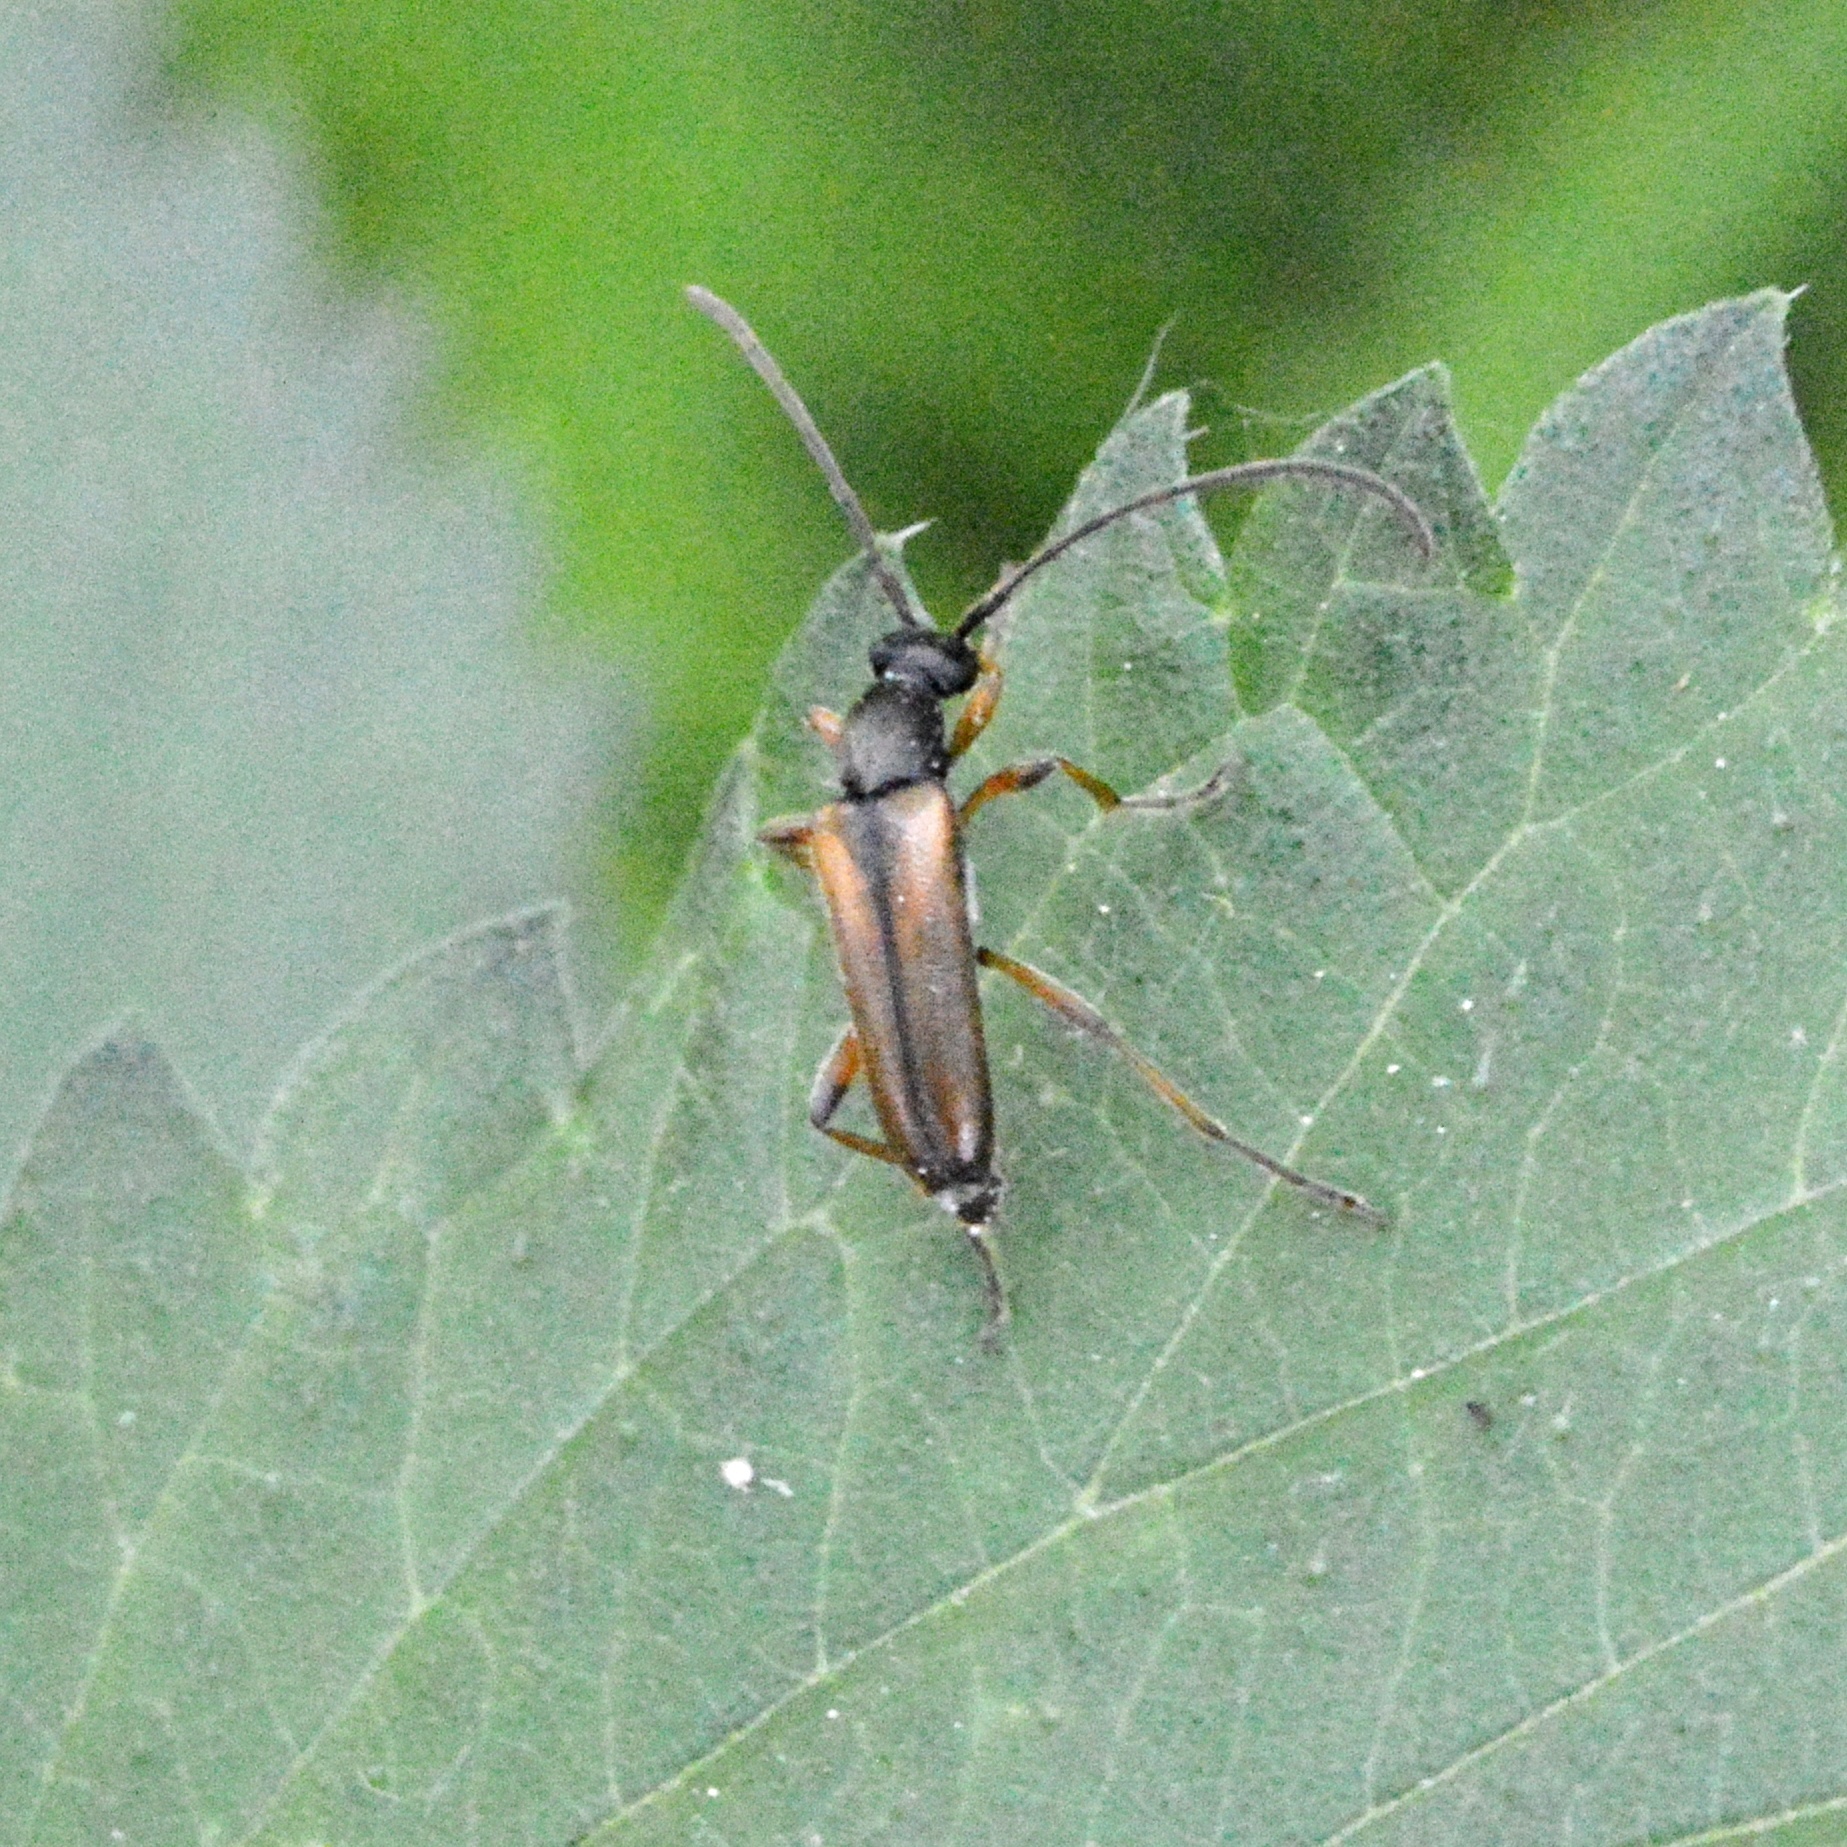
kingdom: Animalia
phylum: Arthropoda
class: Insecta
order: Coleoptera
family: Cerambycidae
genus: Alosterna
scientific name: Alosterna tabacicolor
